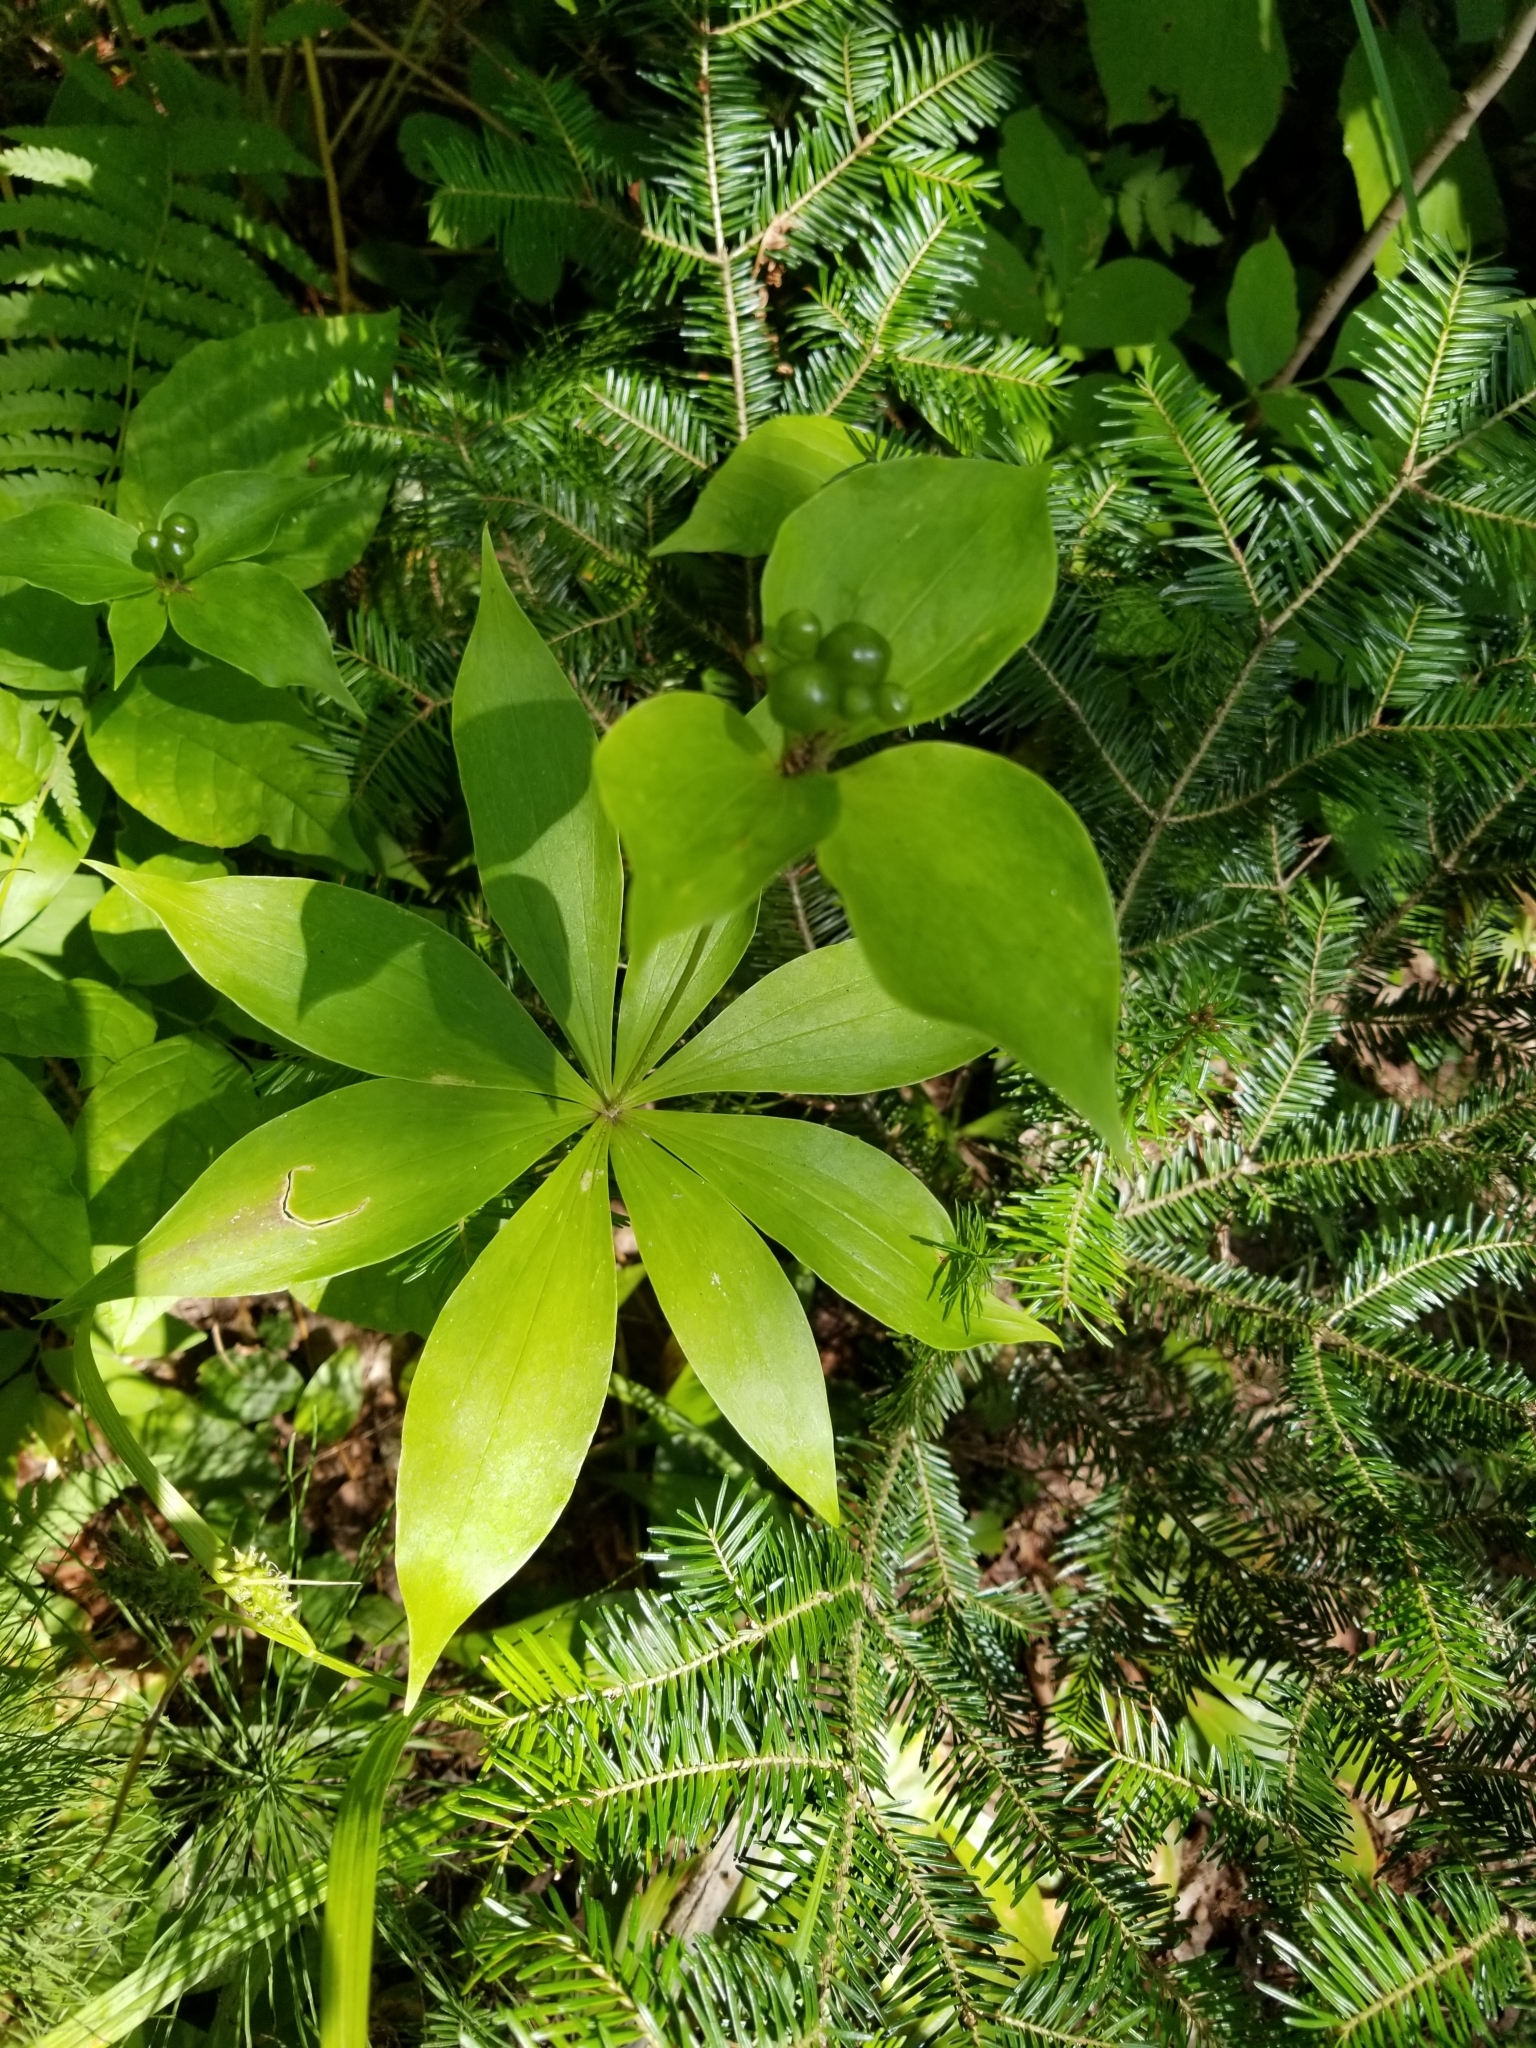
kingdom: Plantae
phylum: Tracheophyta
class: Liliopsida
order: Liliales
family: Liliaceae
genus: Medeola
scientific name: Medeola virginiana
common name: Indian cucumber-root
